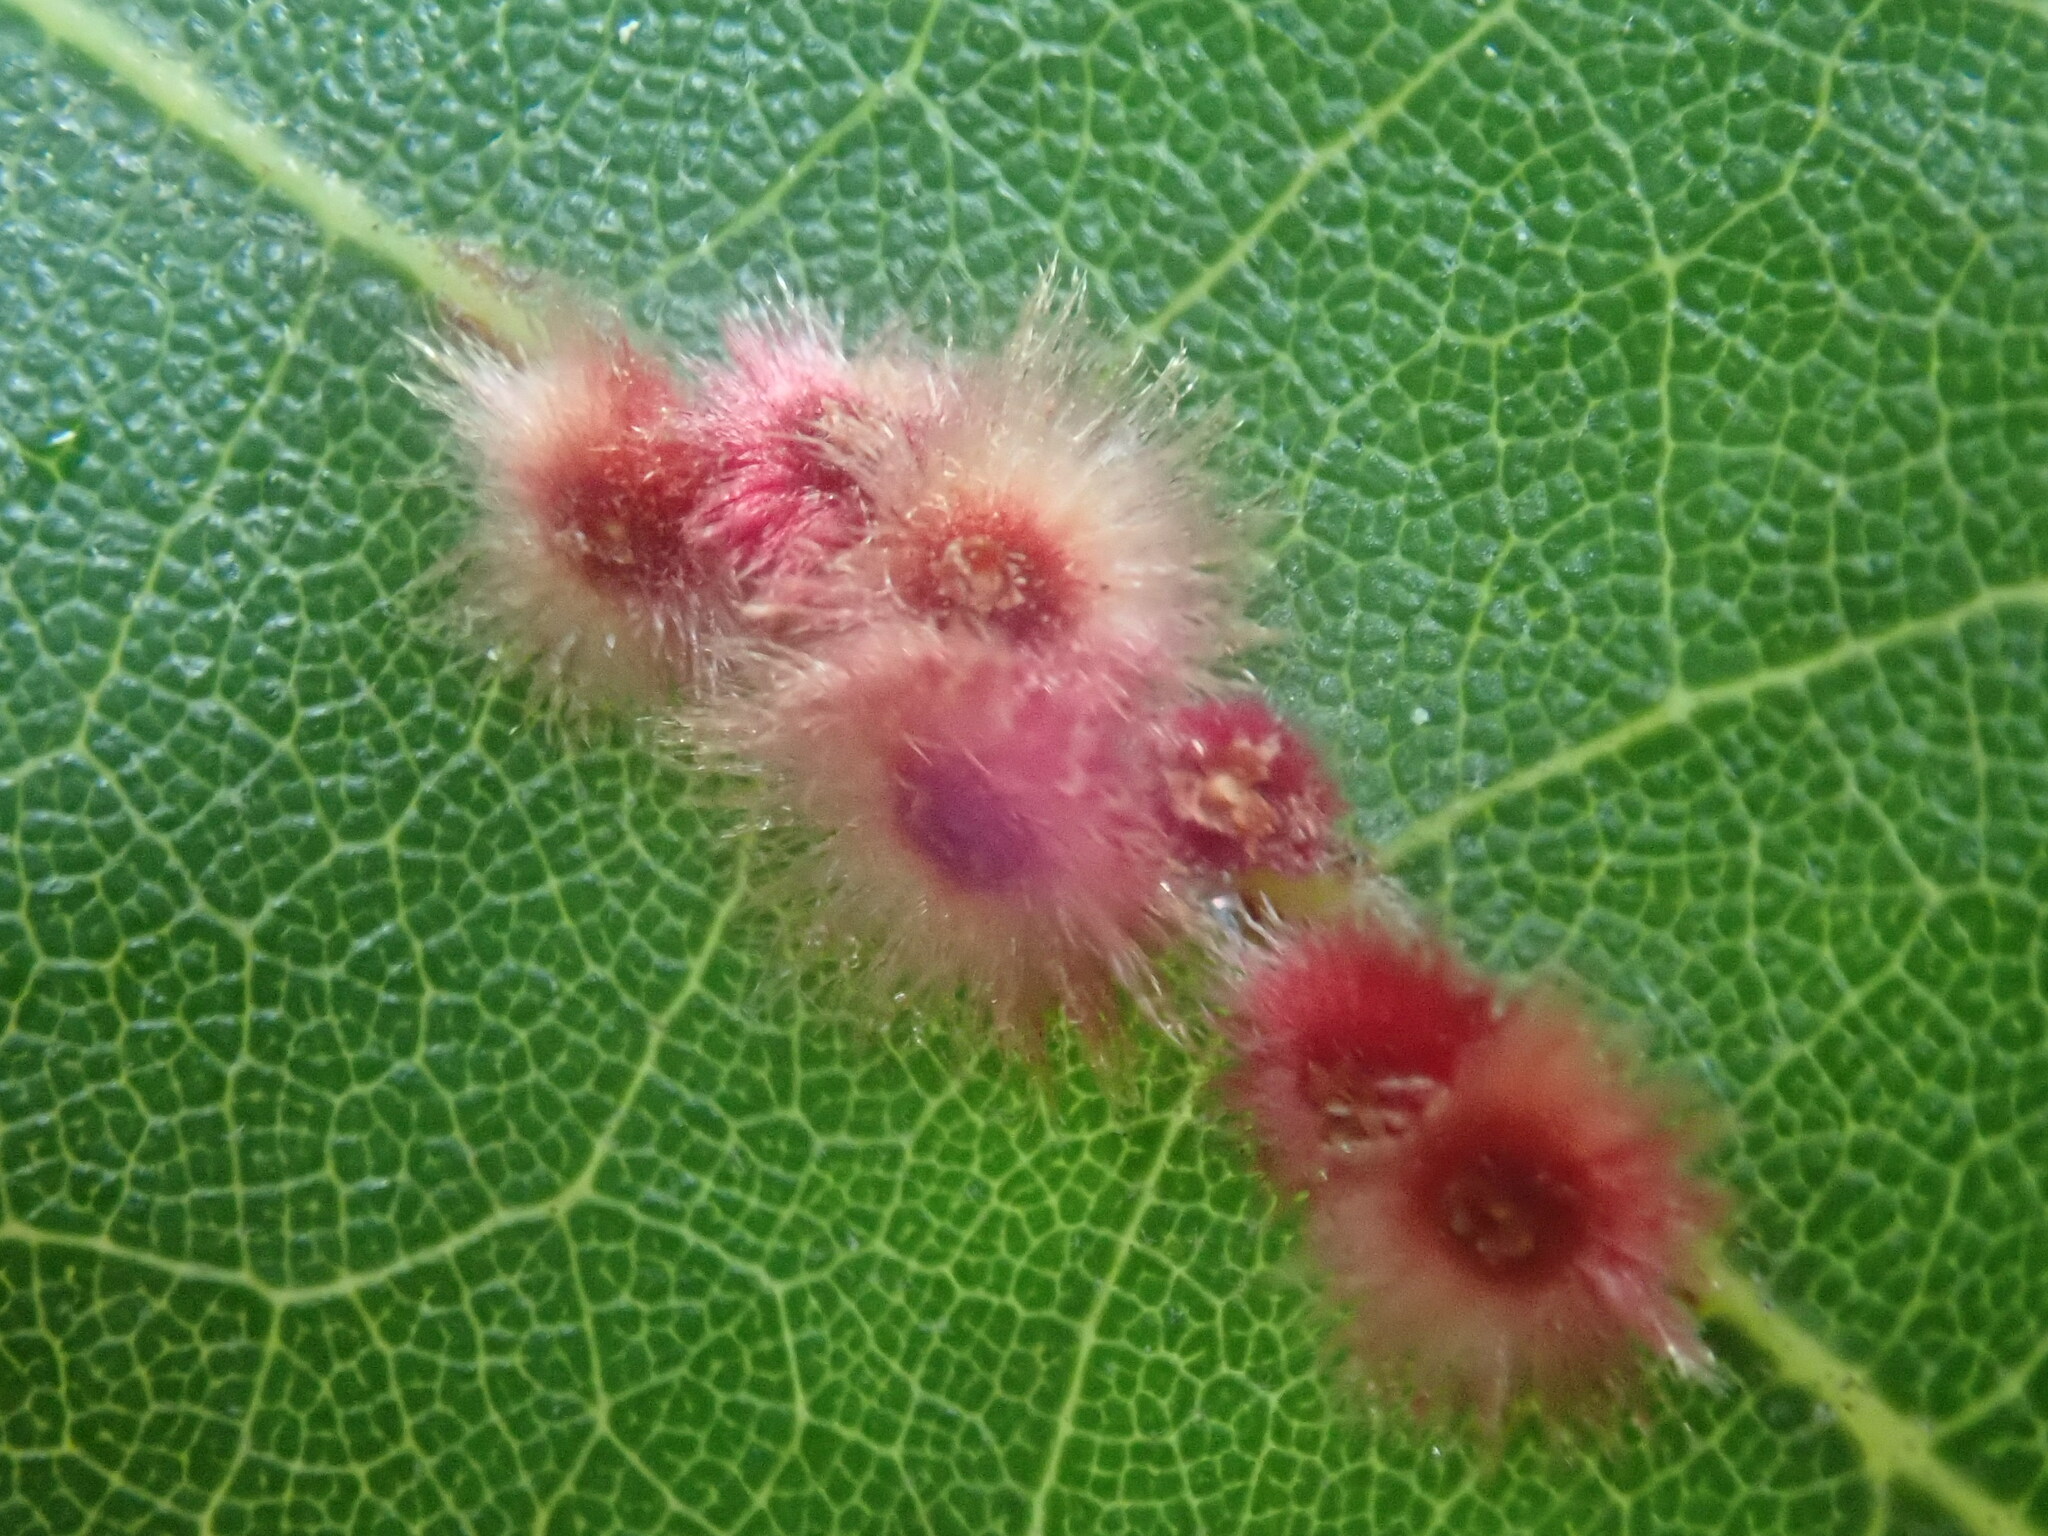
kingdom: Animalia
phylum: Arthropoda
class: Insecta
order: Hymenoptera
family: Cynipidae
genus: Callirhytis
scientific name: Callirhytis
